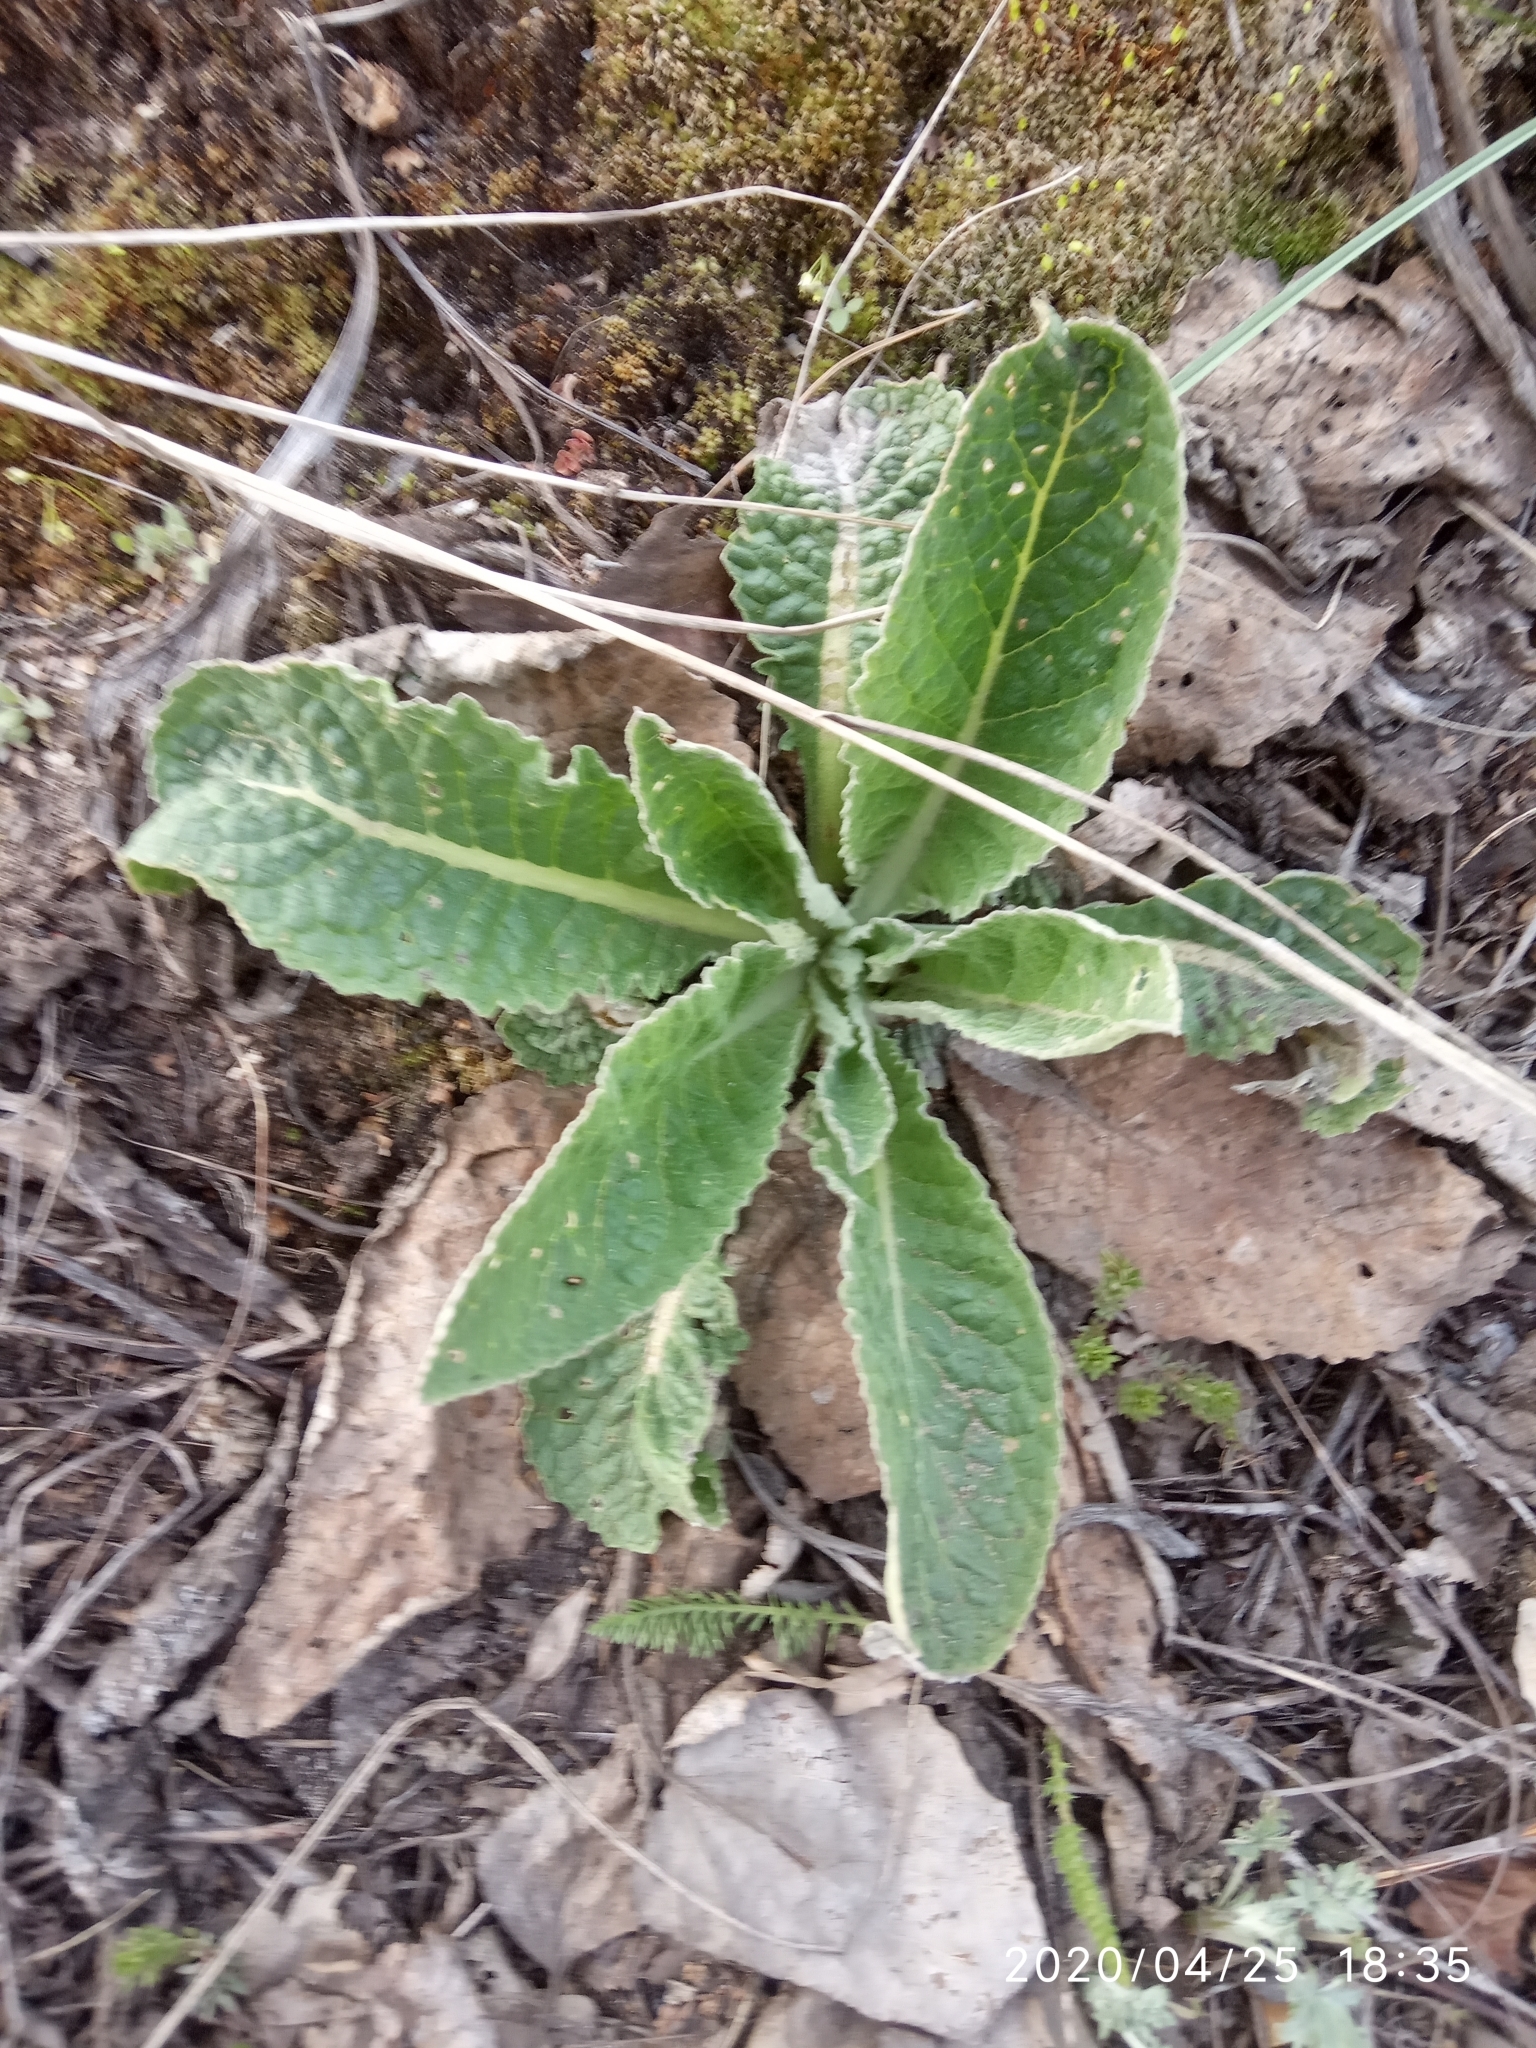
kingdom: Plantae
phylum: Tracheophyta
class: Magnoliopsida
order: Lamiales
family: Scrophulariaceae
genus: Verbascum
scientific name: Verbascum lychnitis
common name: White mullein
